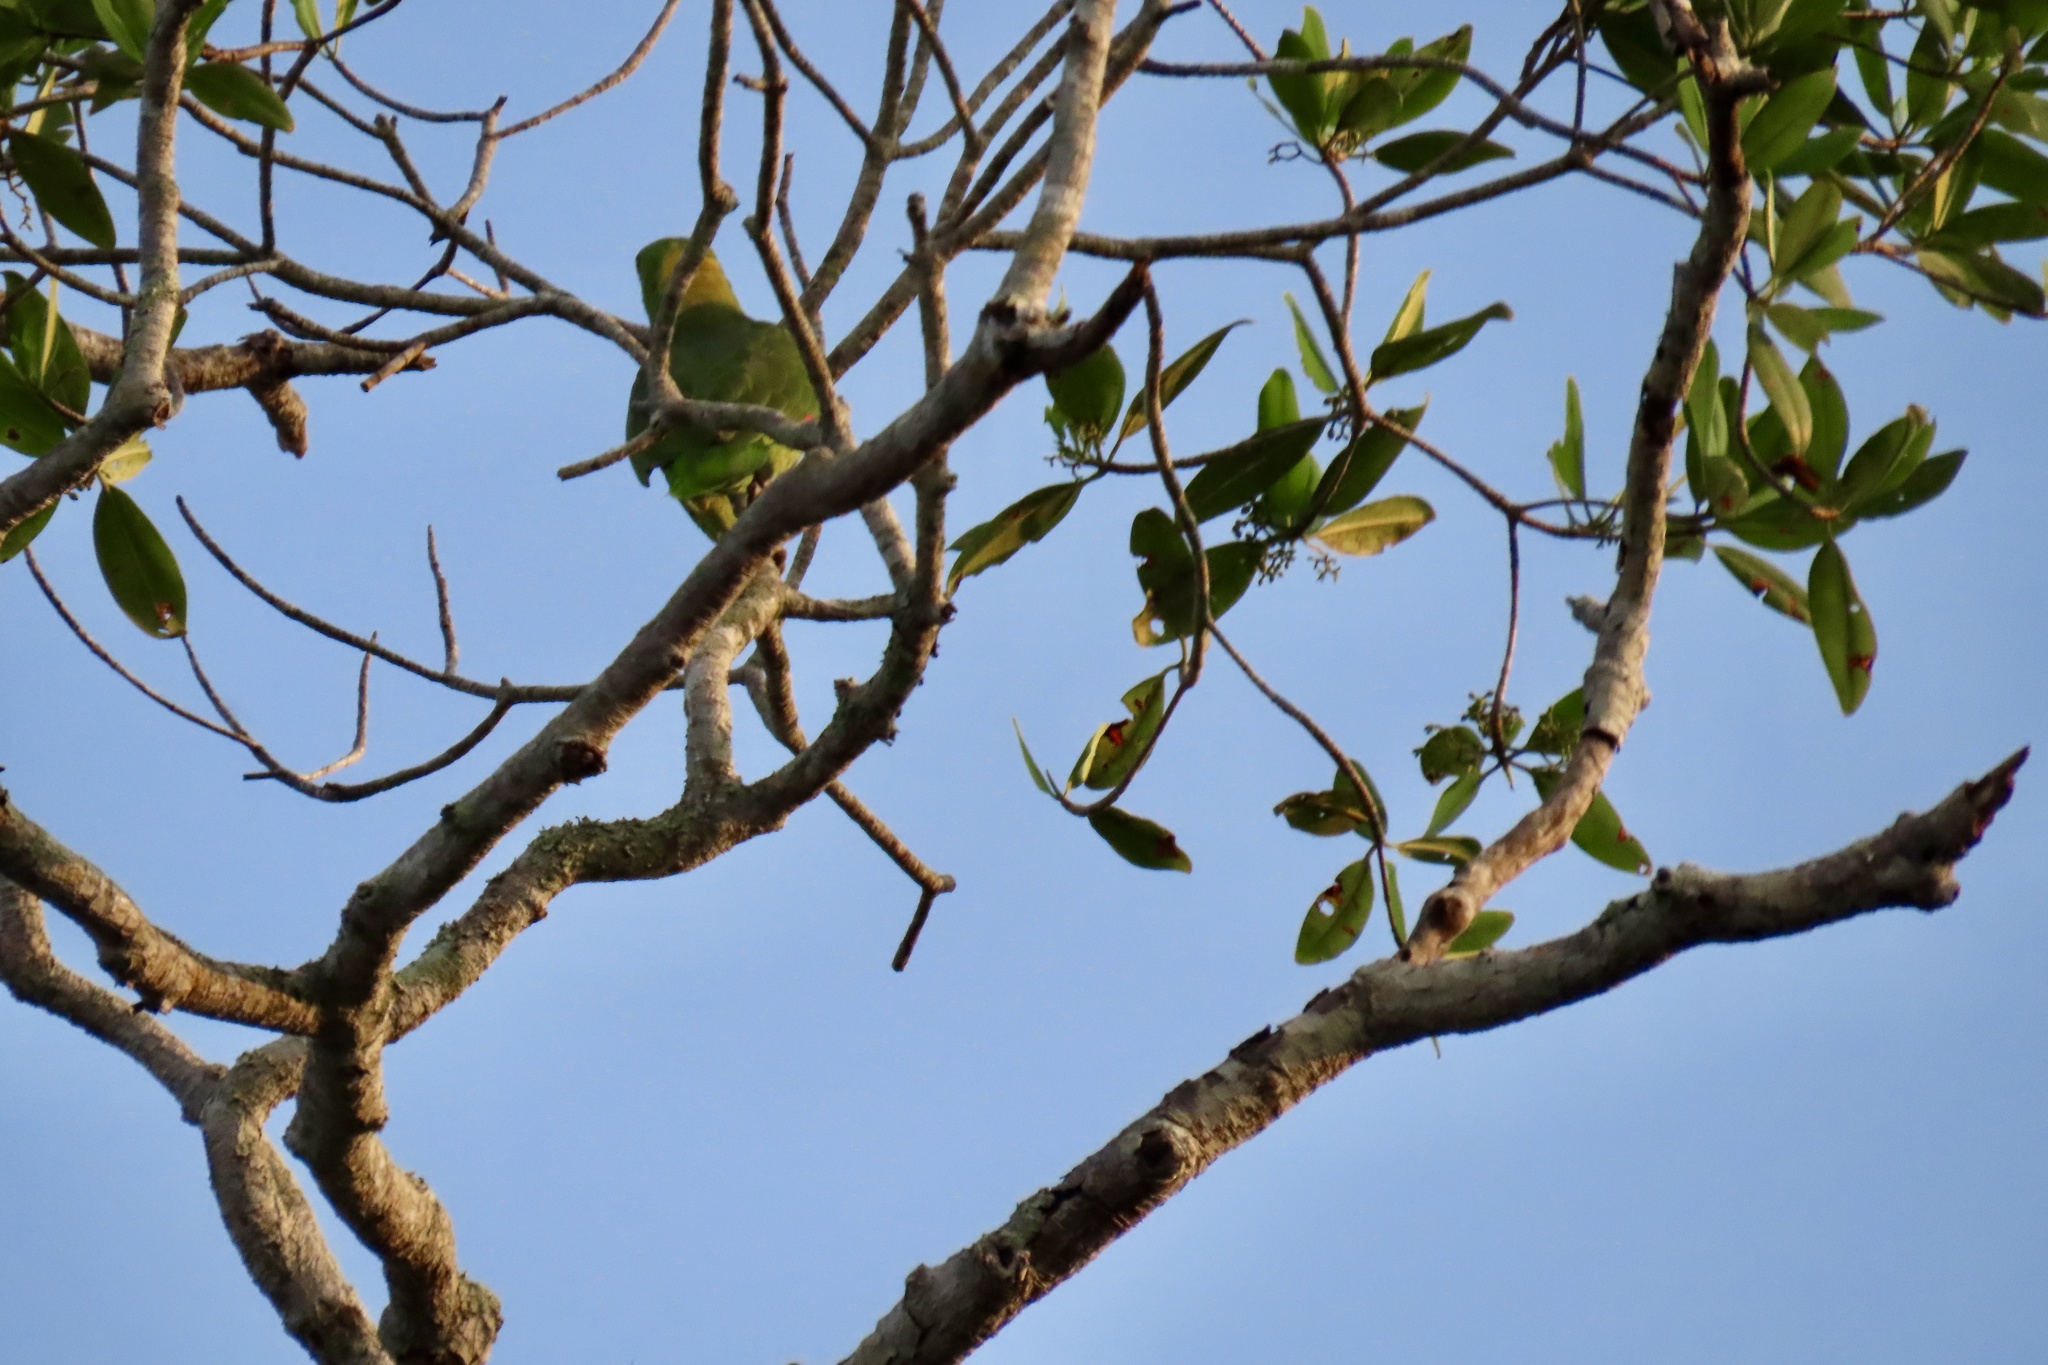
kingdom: Animalia
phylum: Chordata
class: Aves
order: Psittaciformes
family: Psittacidae
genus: Amazona
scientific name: Amazona auropalliata
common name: Yellow-naped amazon
